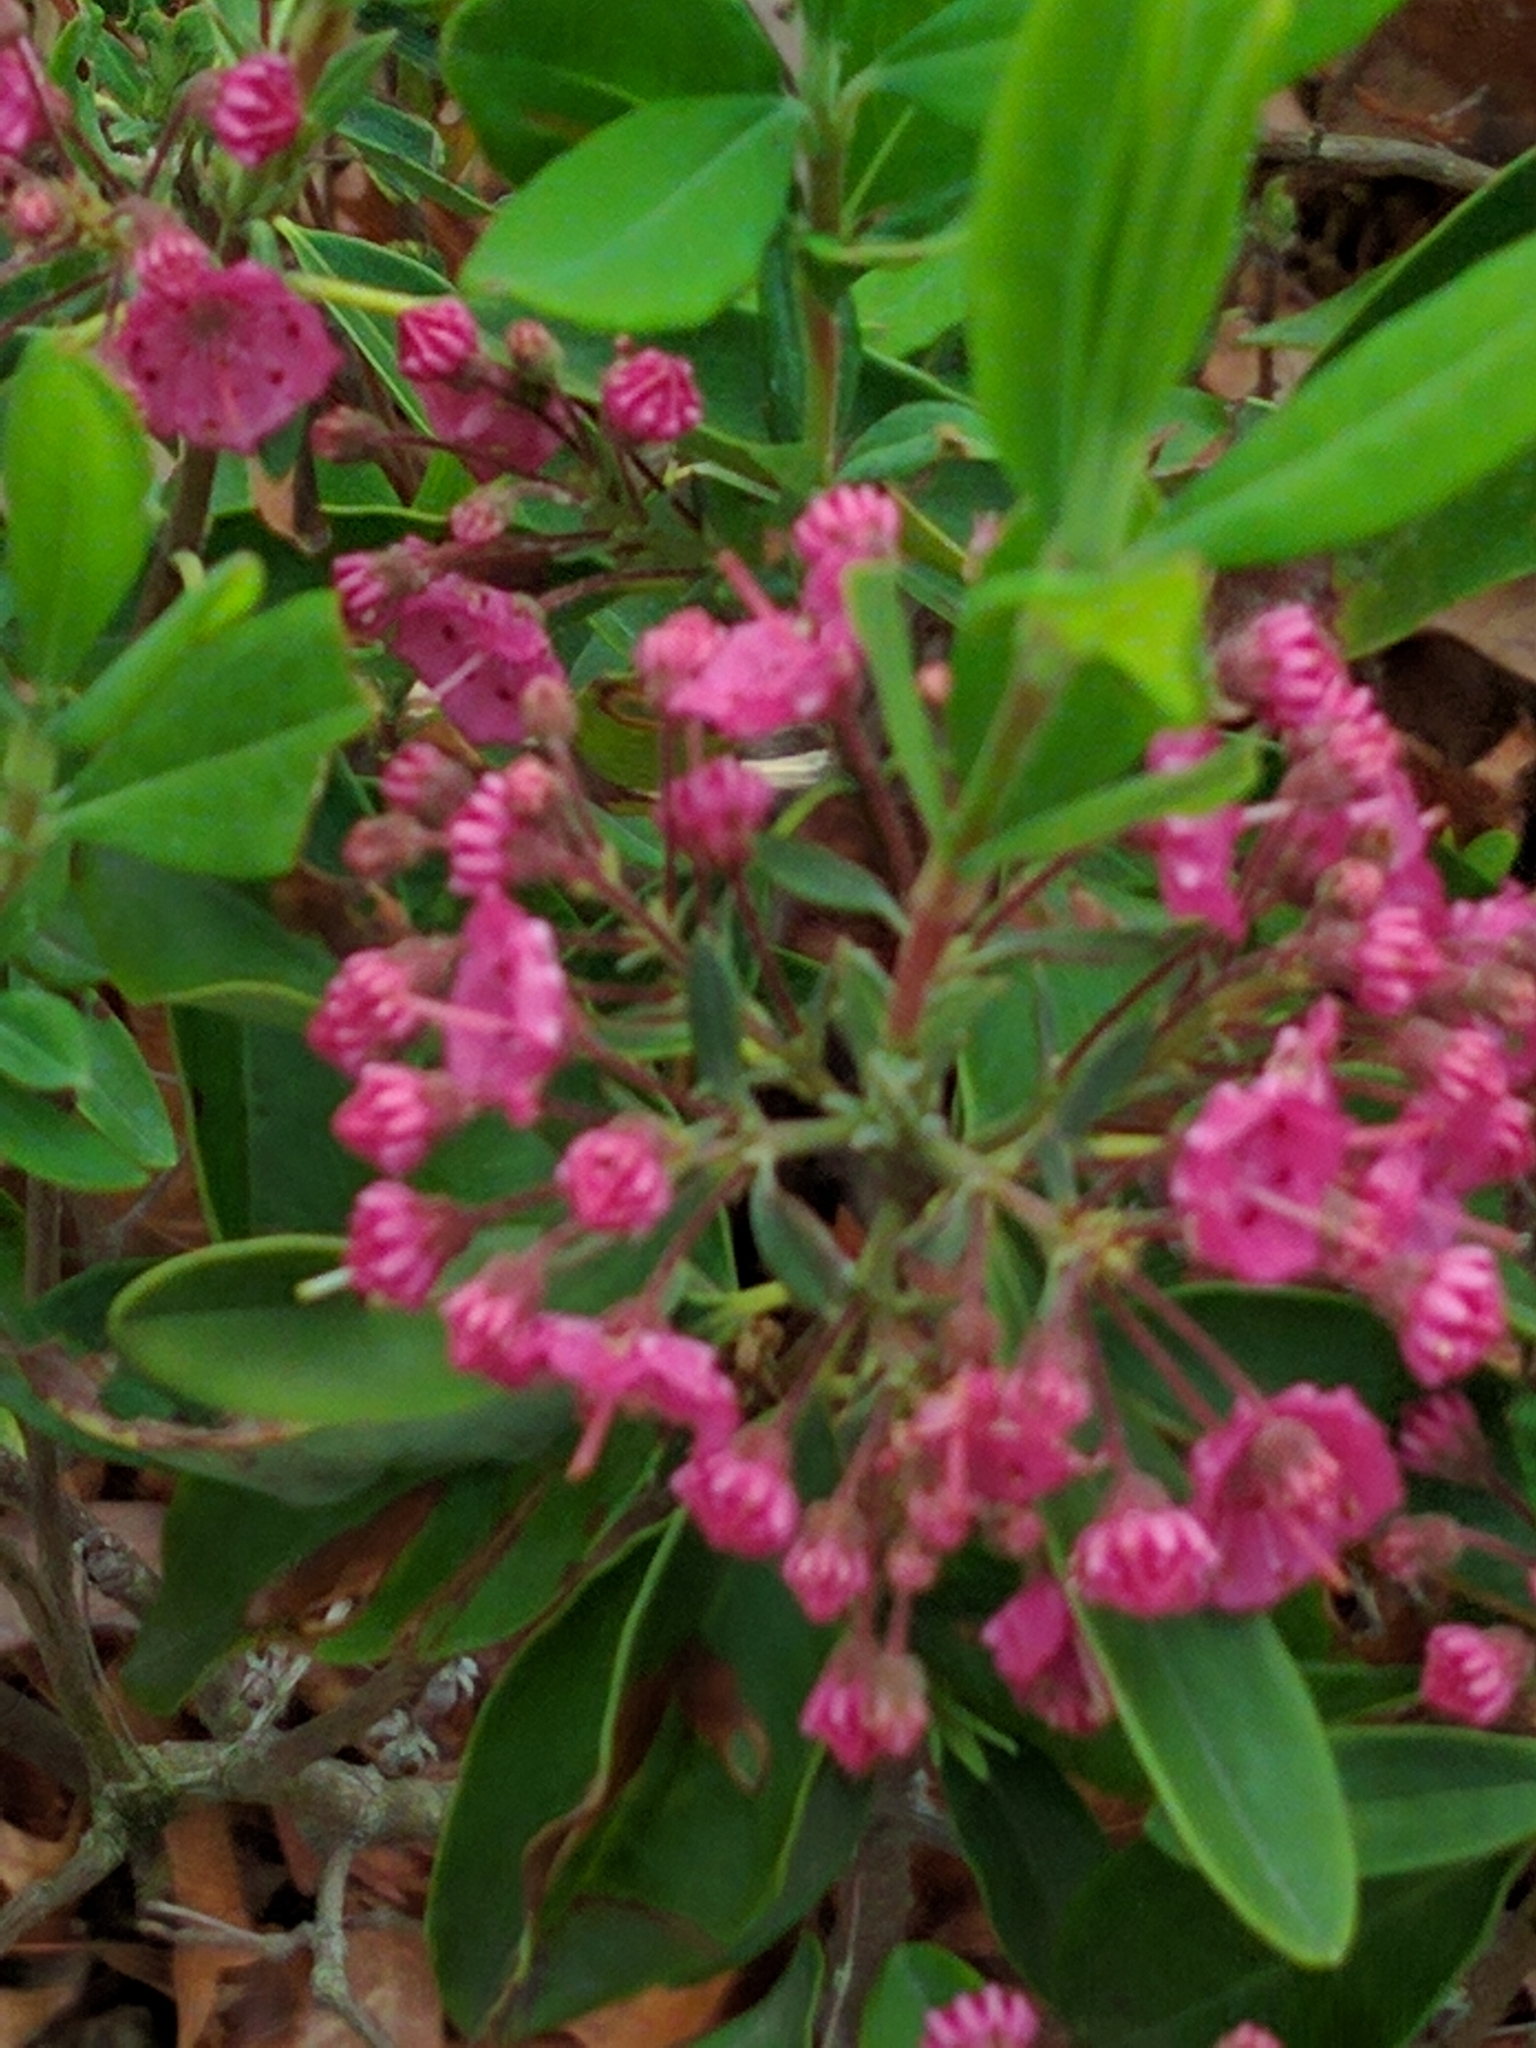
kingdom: Plantae
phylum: Tracheophyta
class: Magnoliopsida
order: Ericales
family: Ericaceae
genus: Kalmia
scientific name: Kalmia angustifolia
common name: Sheep-laurel
